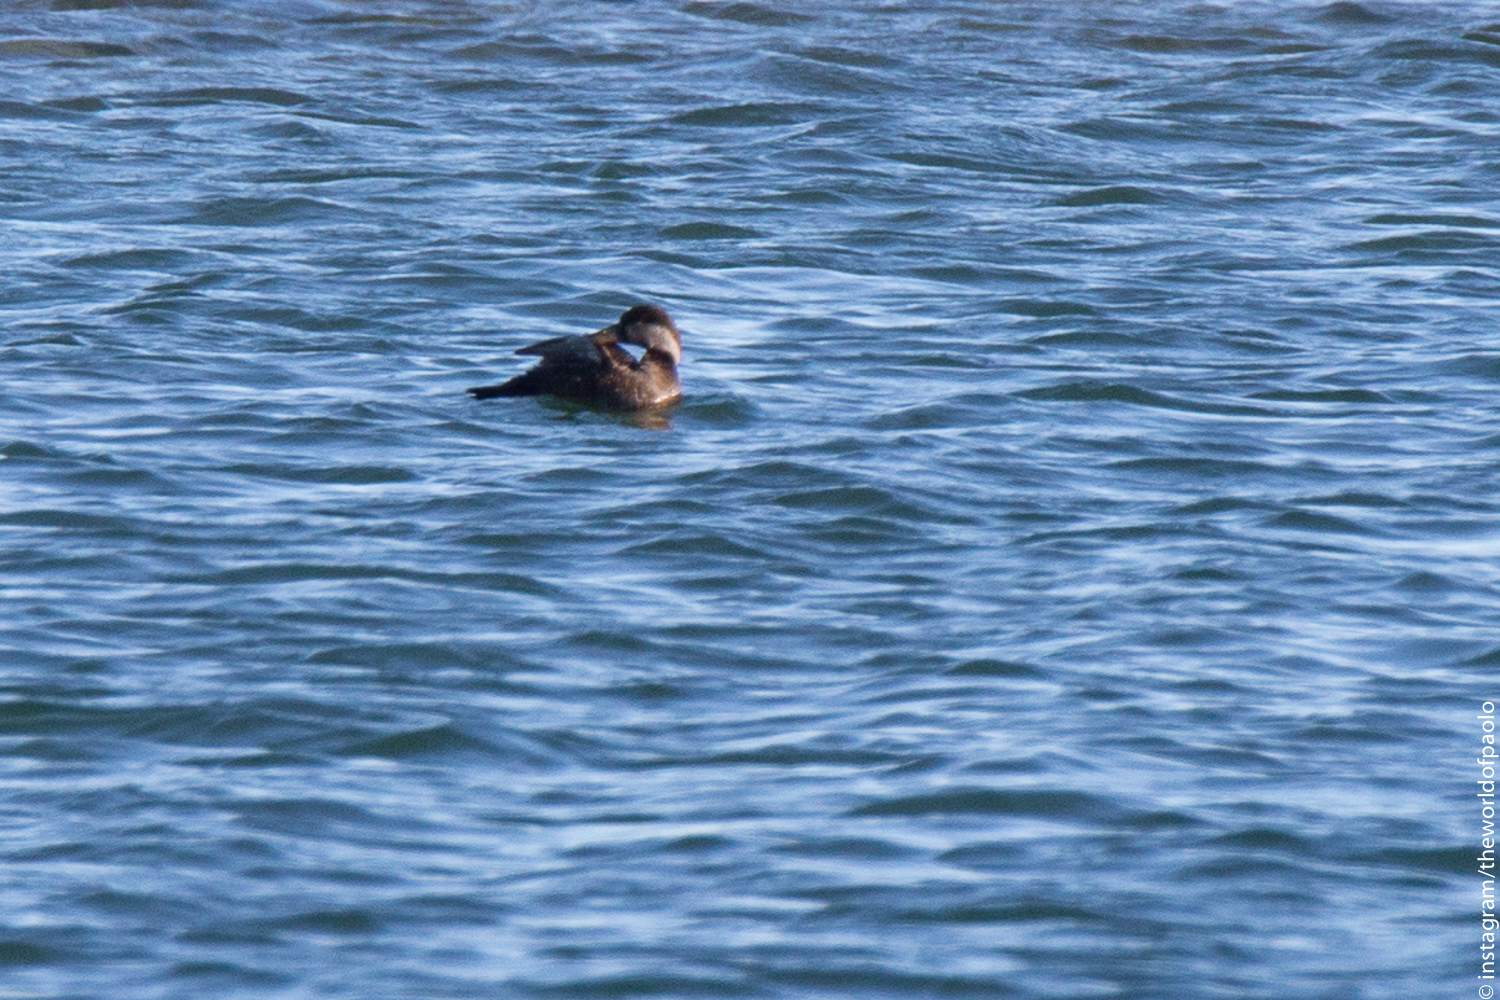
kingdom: Animalia
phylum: Chordata
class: Aves
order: Anseriformes
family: Anatidae
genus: Melanitta
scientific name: Melanitta nigra
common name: Common scoter
